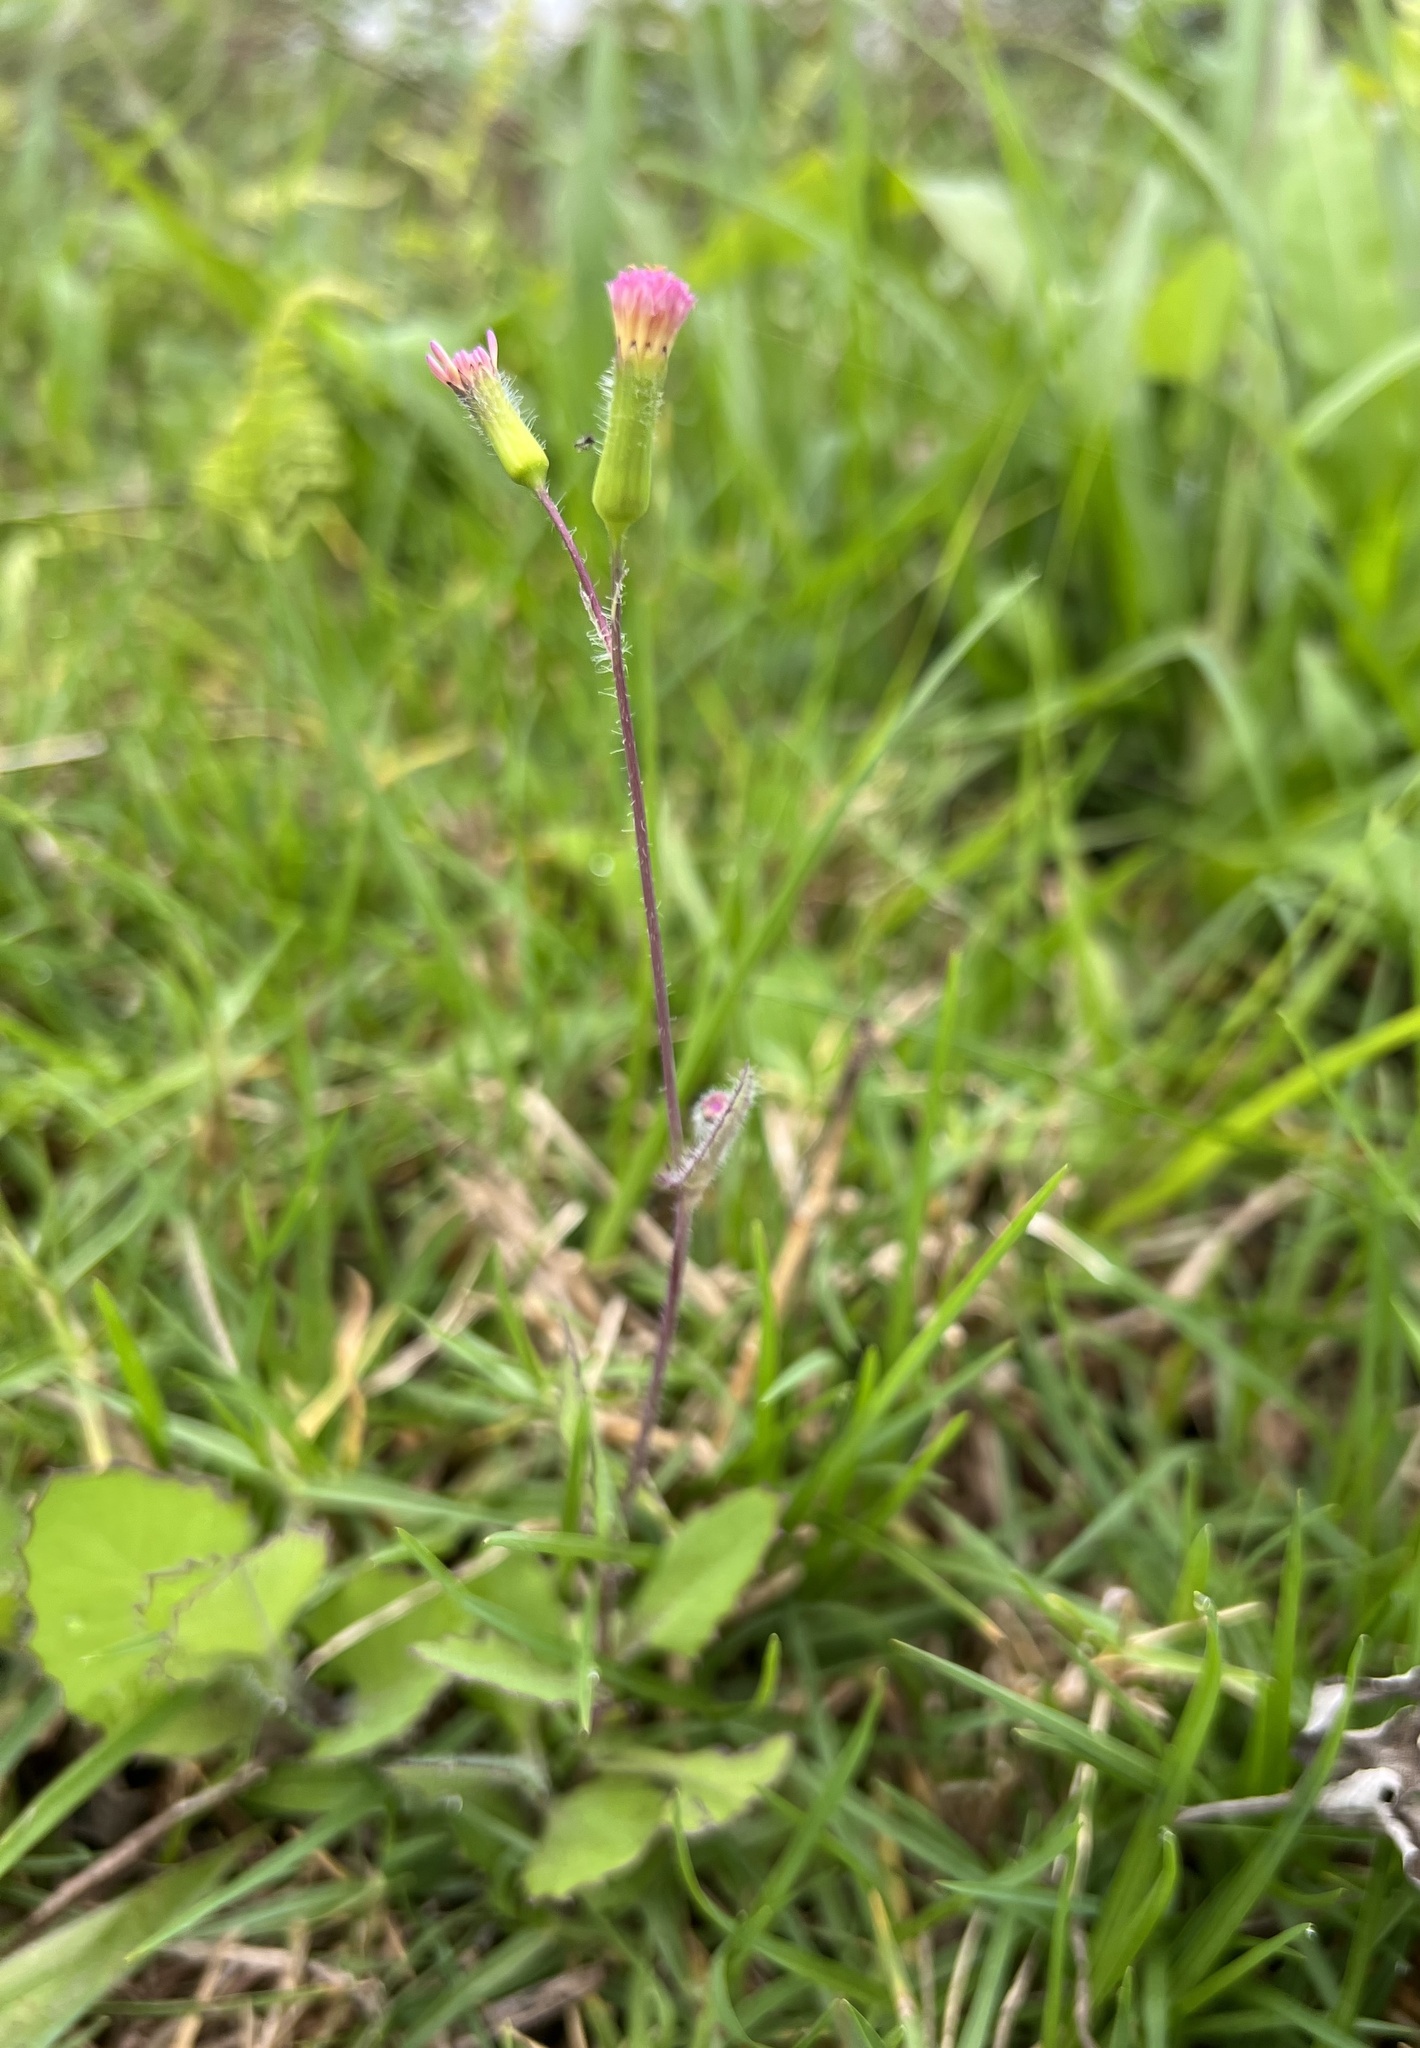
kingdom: Plantae
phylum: Tracheophyta
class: Magnoliopsida
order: Asterales
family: Asteraceae
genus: Emilia
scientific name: Emilia sonchifolia
